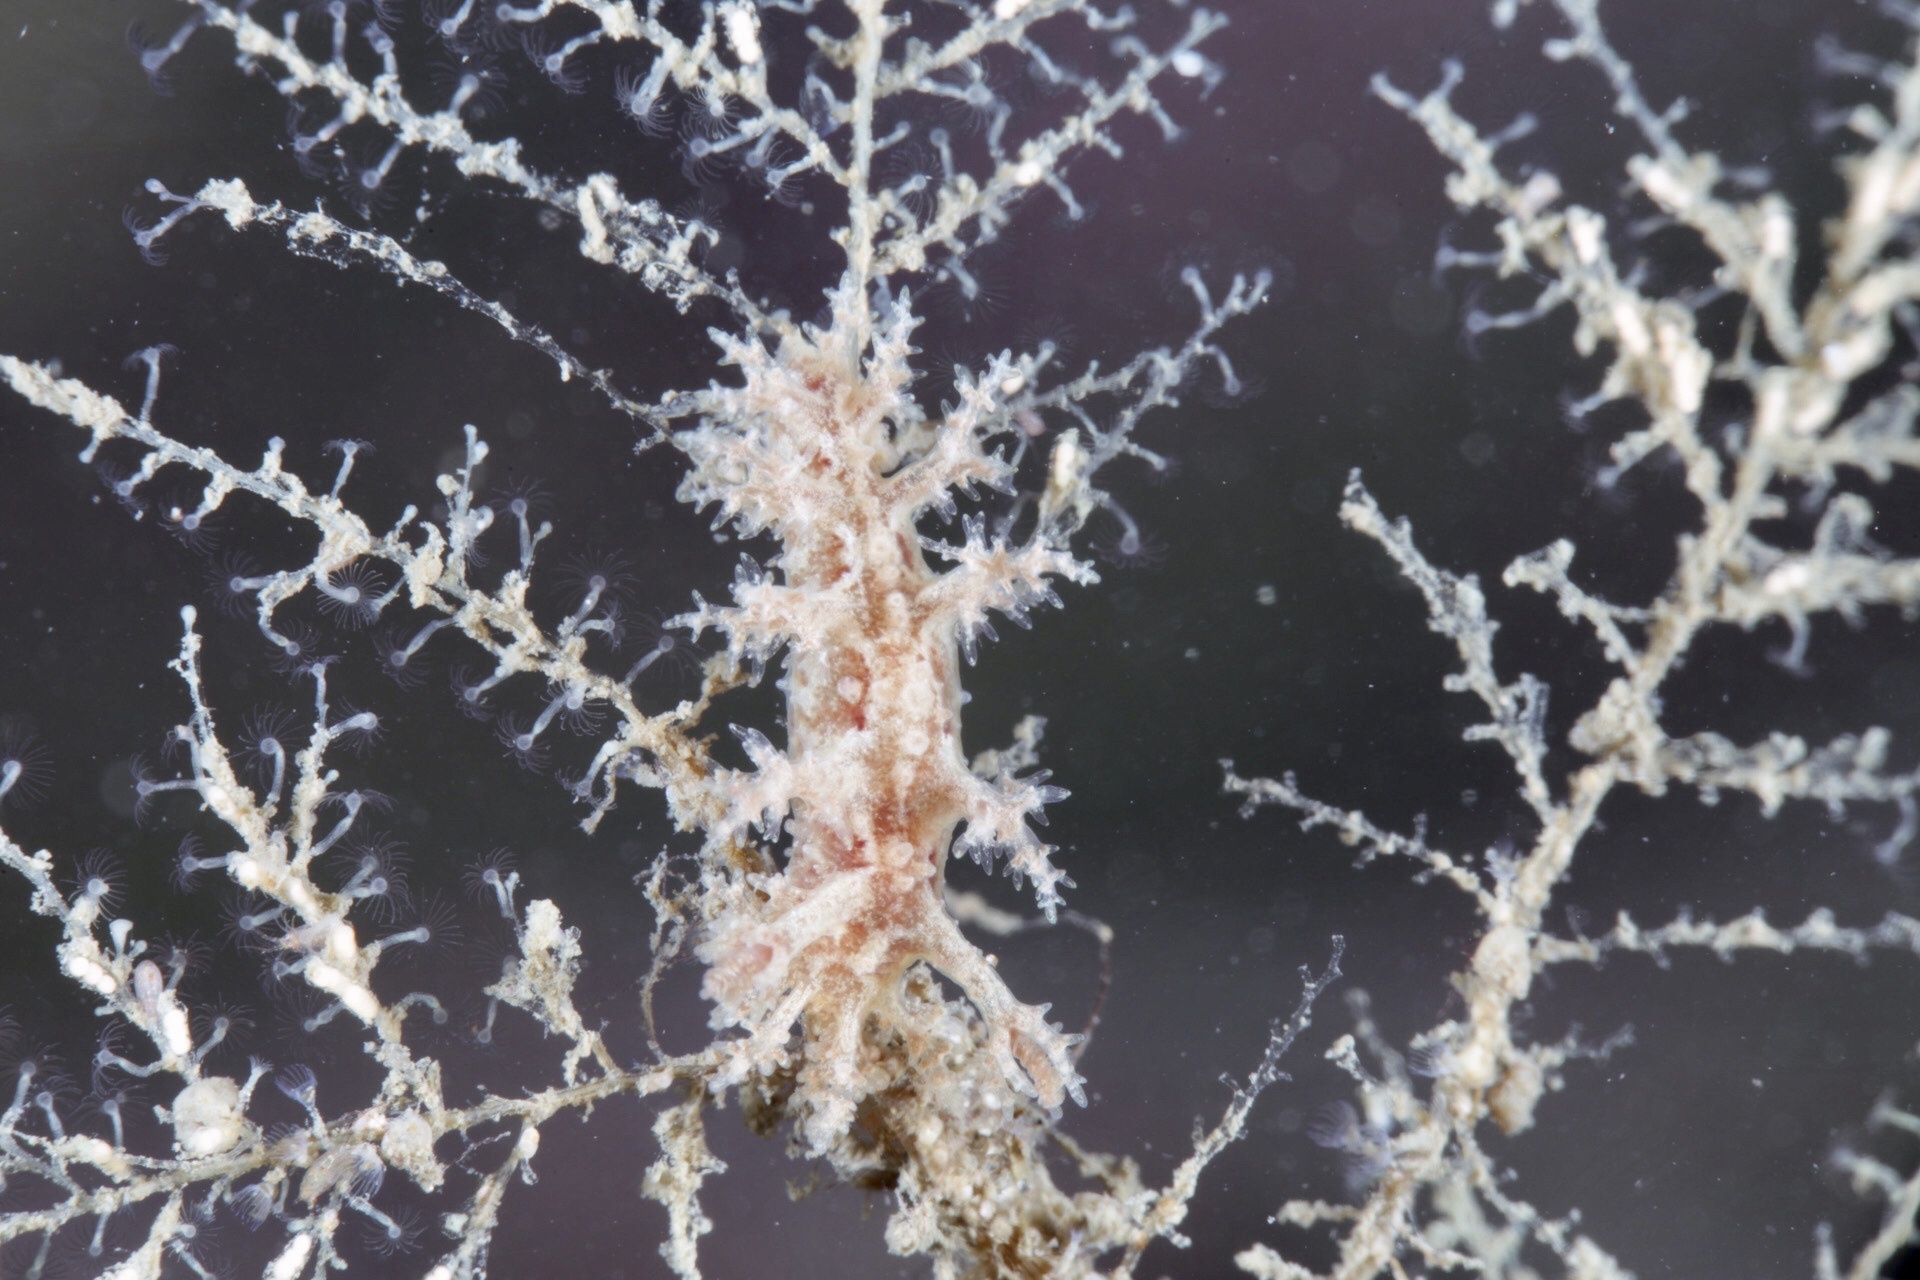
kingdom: Animalia
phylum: Mollusca
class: Gastropoda
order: Nudibranchia
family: Dendronotidae
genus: Dendronotus
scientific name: Dendronotus frondosus
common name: Bushy-backed nudibranch
